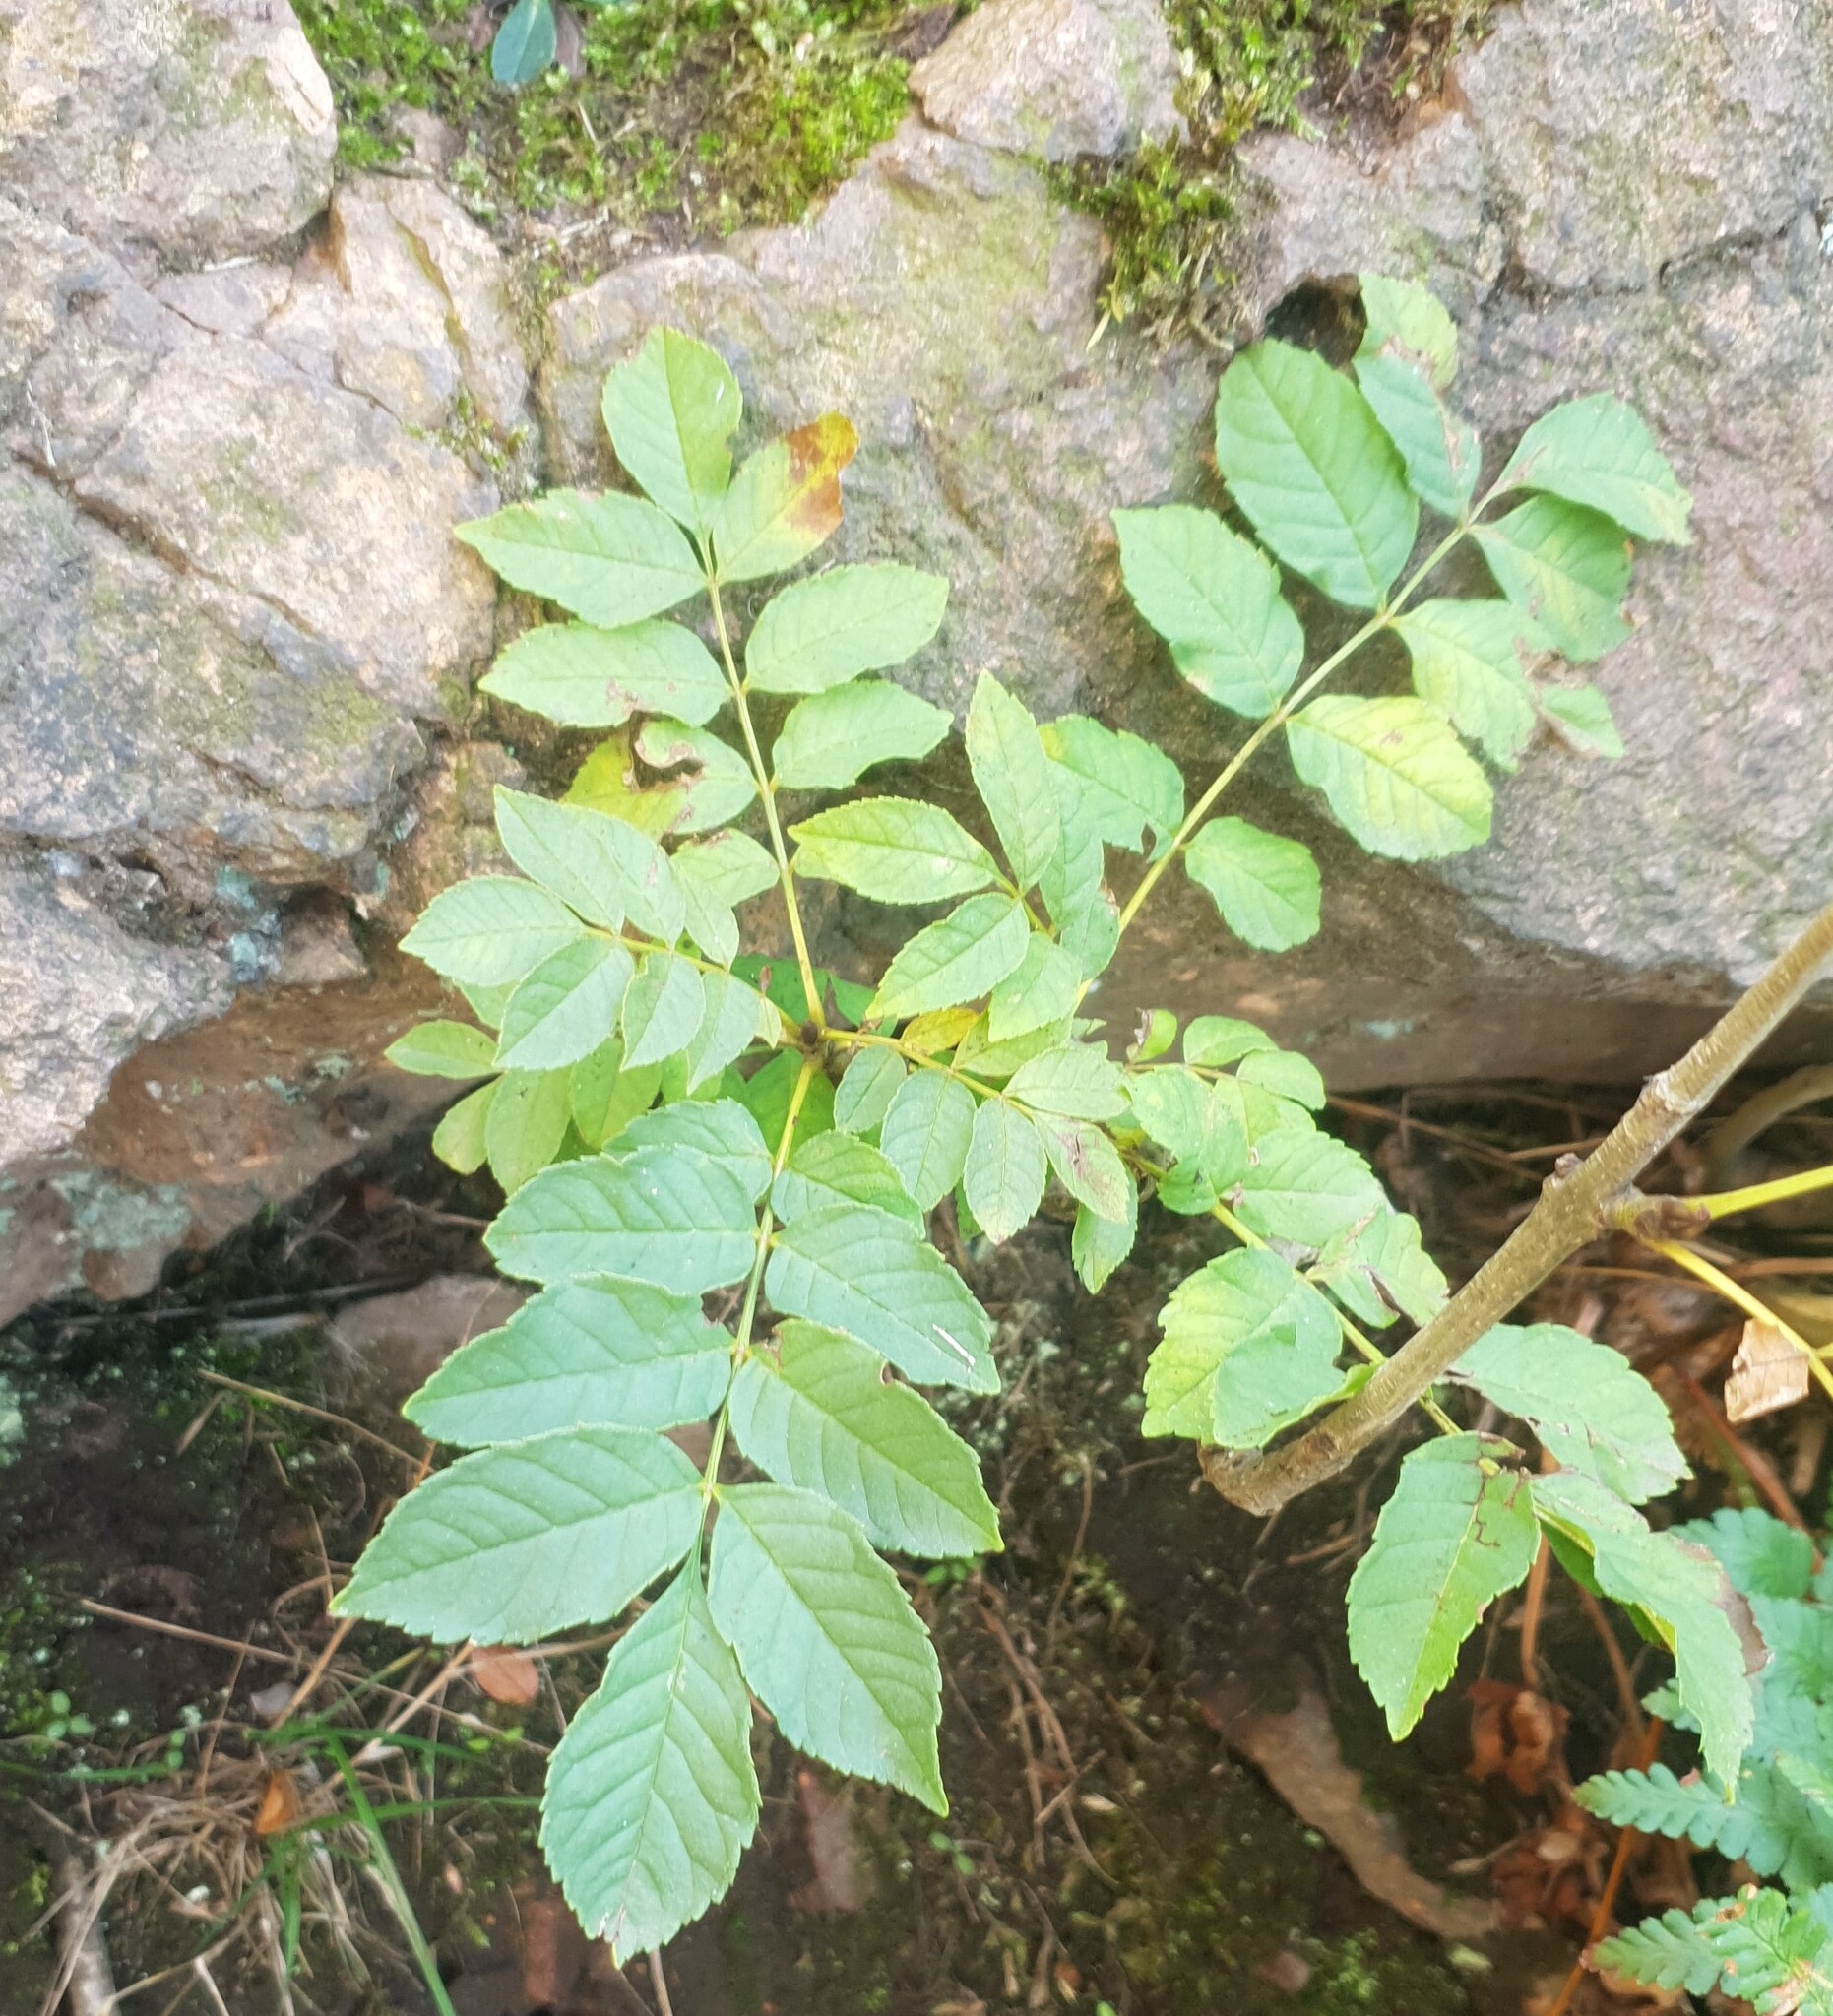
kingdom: Plantae
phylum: Tracheophyta
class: Magnoliopsida
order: Lamiales
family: Oleaceae
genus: Fraxinus
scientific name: Fraxinus excelsior
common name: European ash
